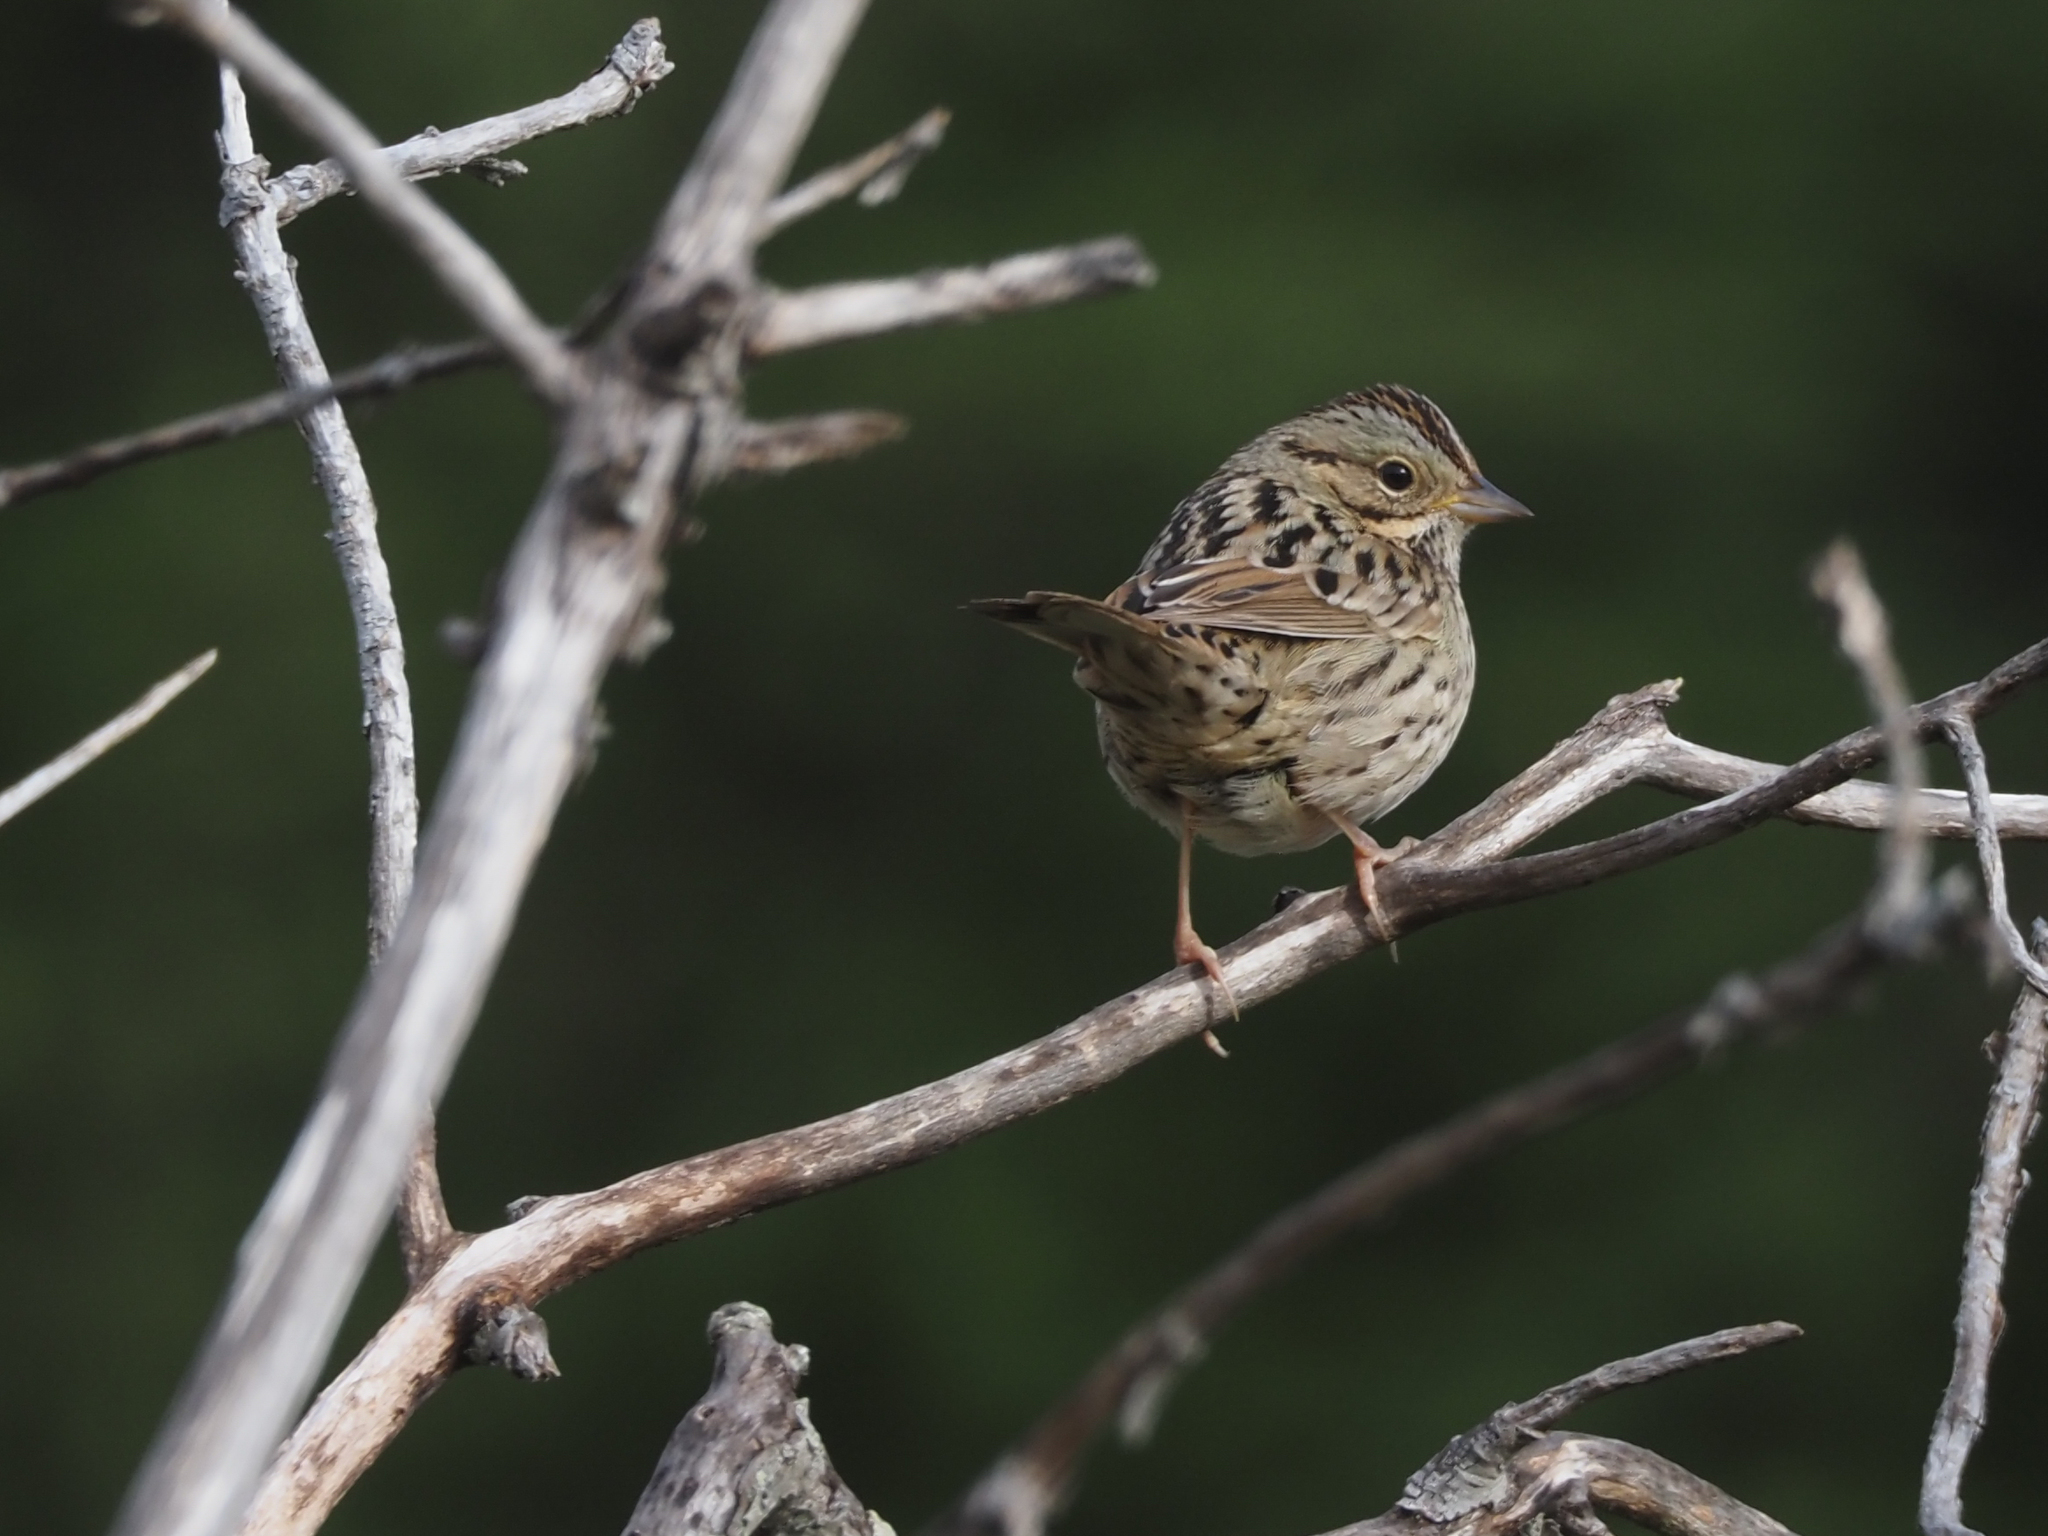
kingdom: Animalia
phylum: Chordata
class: Aves
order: Passeriformes
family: Passerellidae
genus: Melospiza
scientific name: Melospiza lincolnii
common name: Lincoln's sparrow
